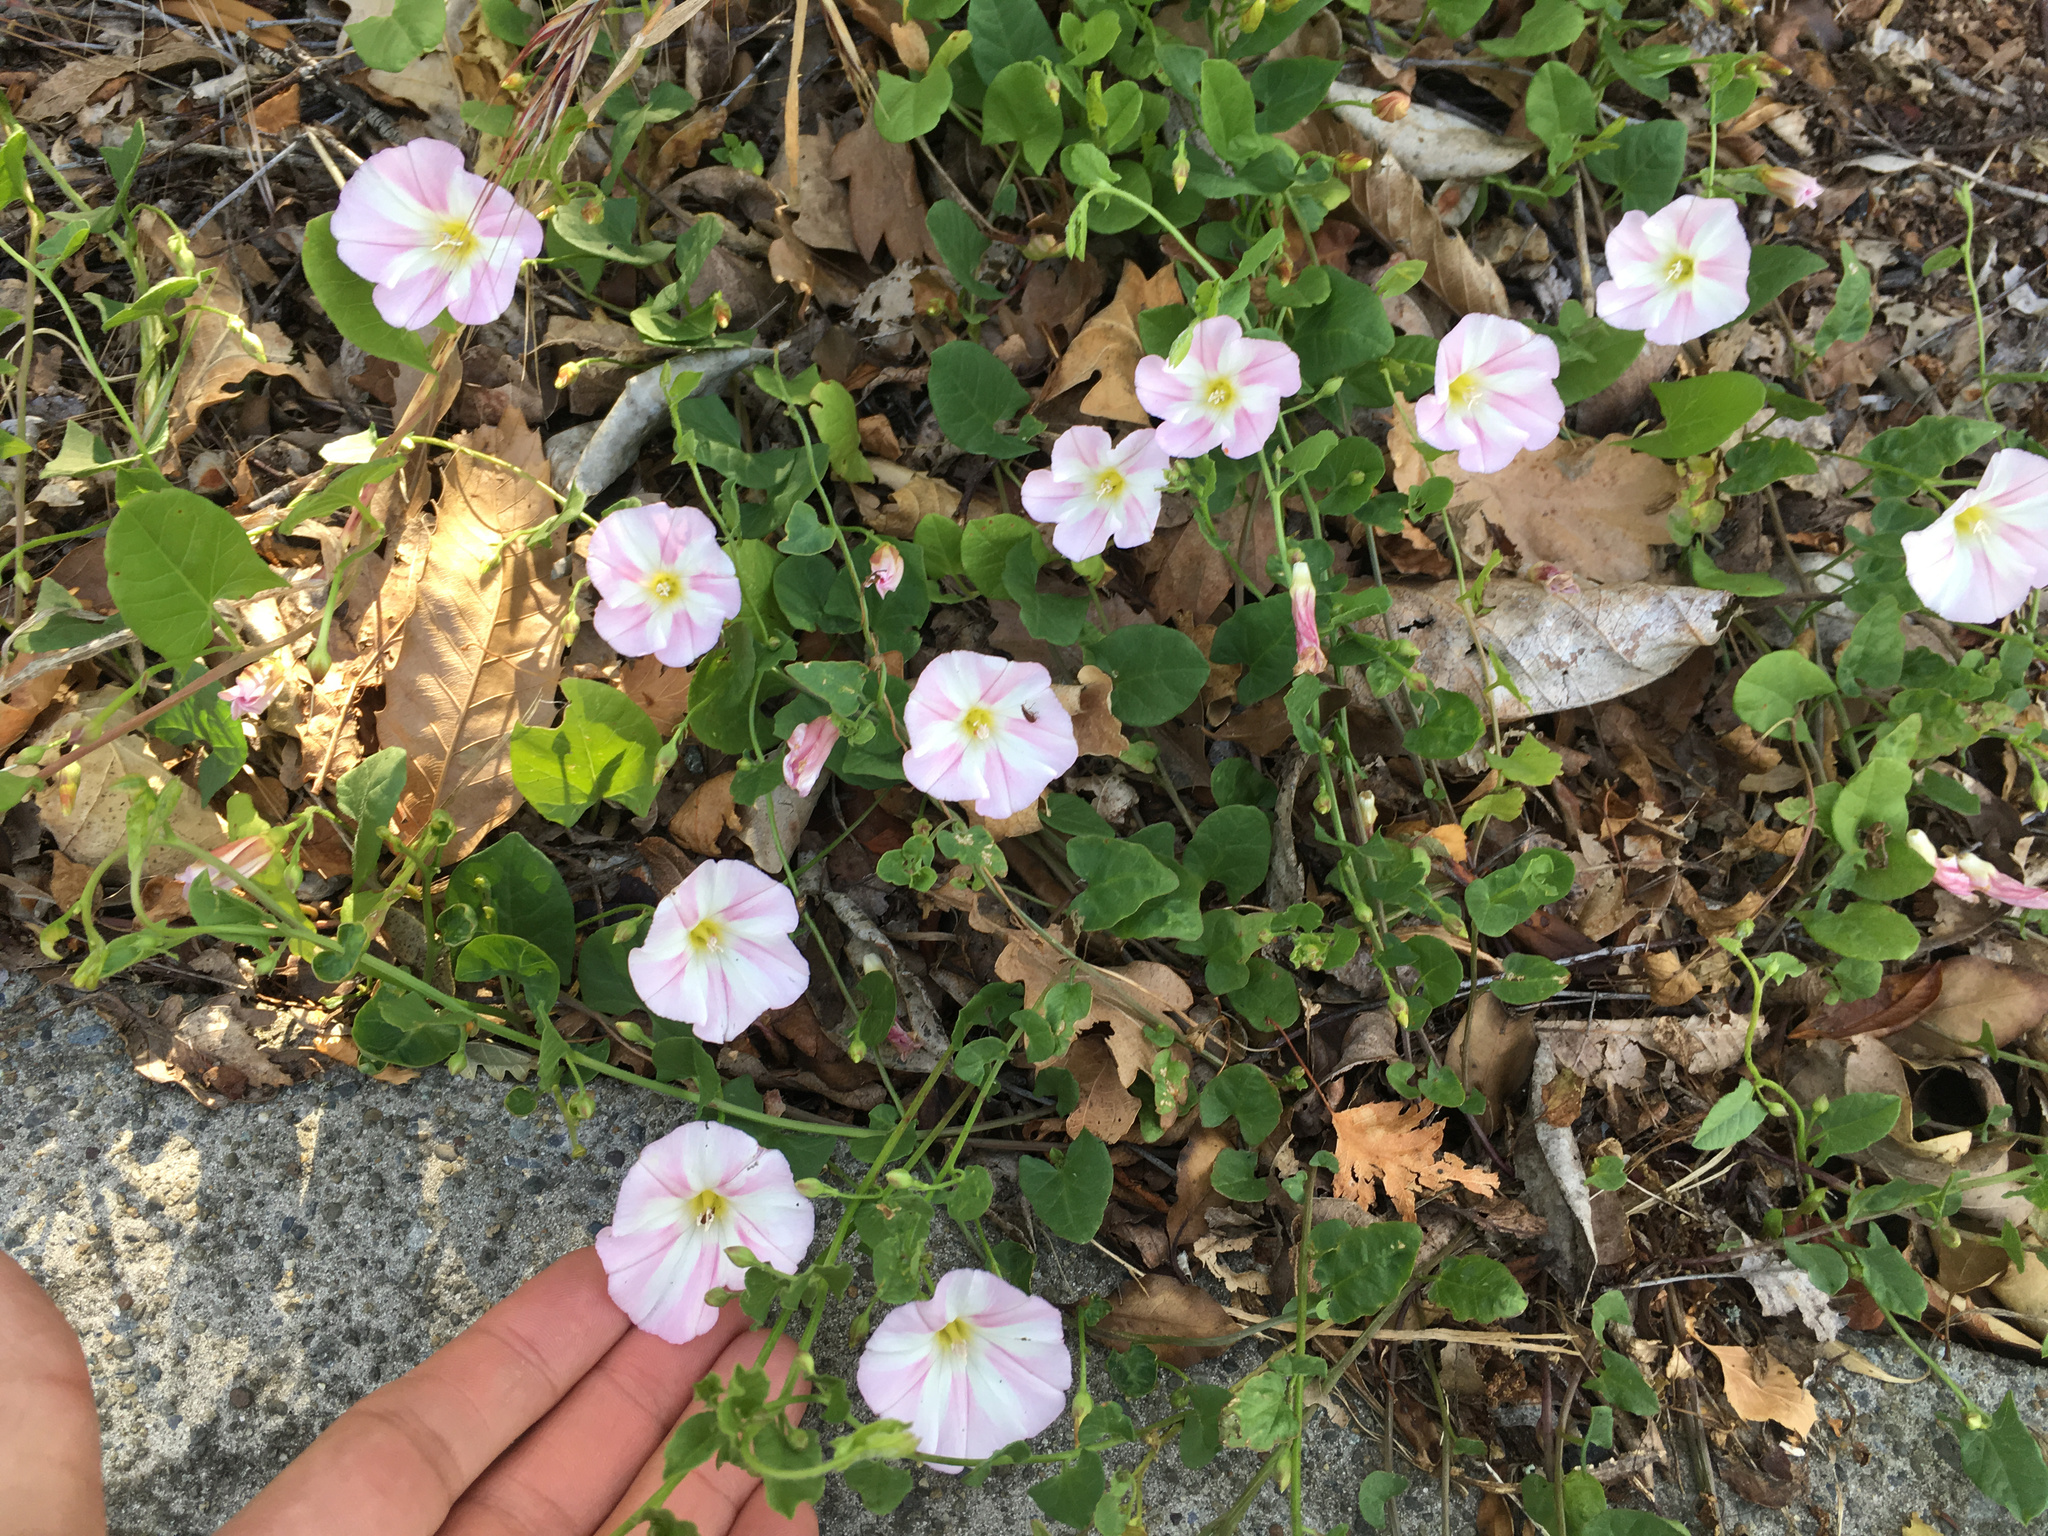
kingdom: Plantae
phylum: Tracheophyta
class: Magnoliopsida
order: Solanales
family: Convolvulaceae
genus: Convolvulus
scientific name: Convolvulus arvensis
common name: Field bindweed
